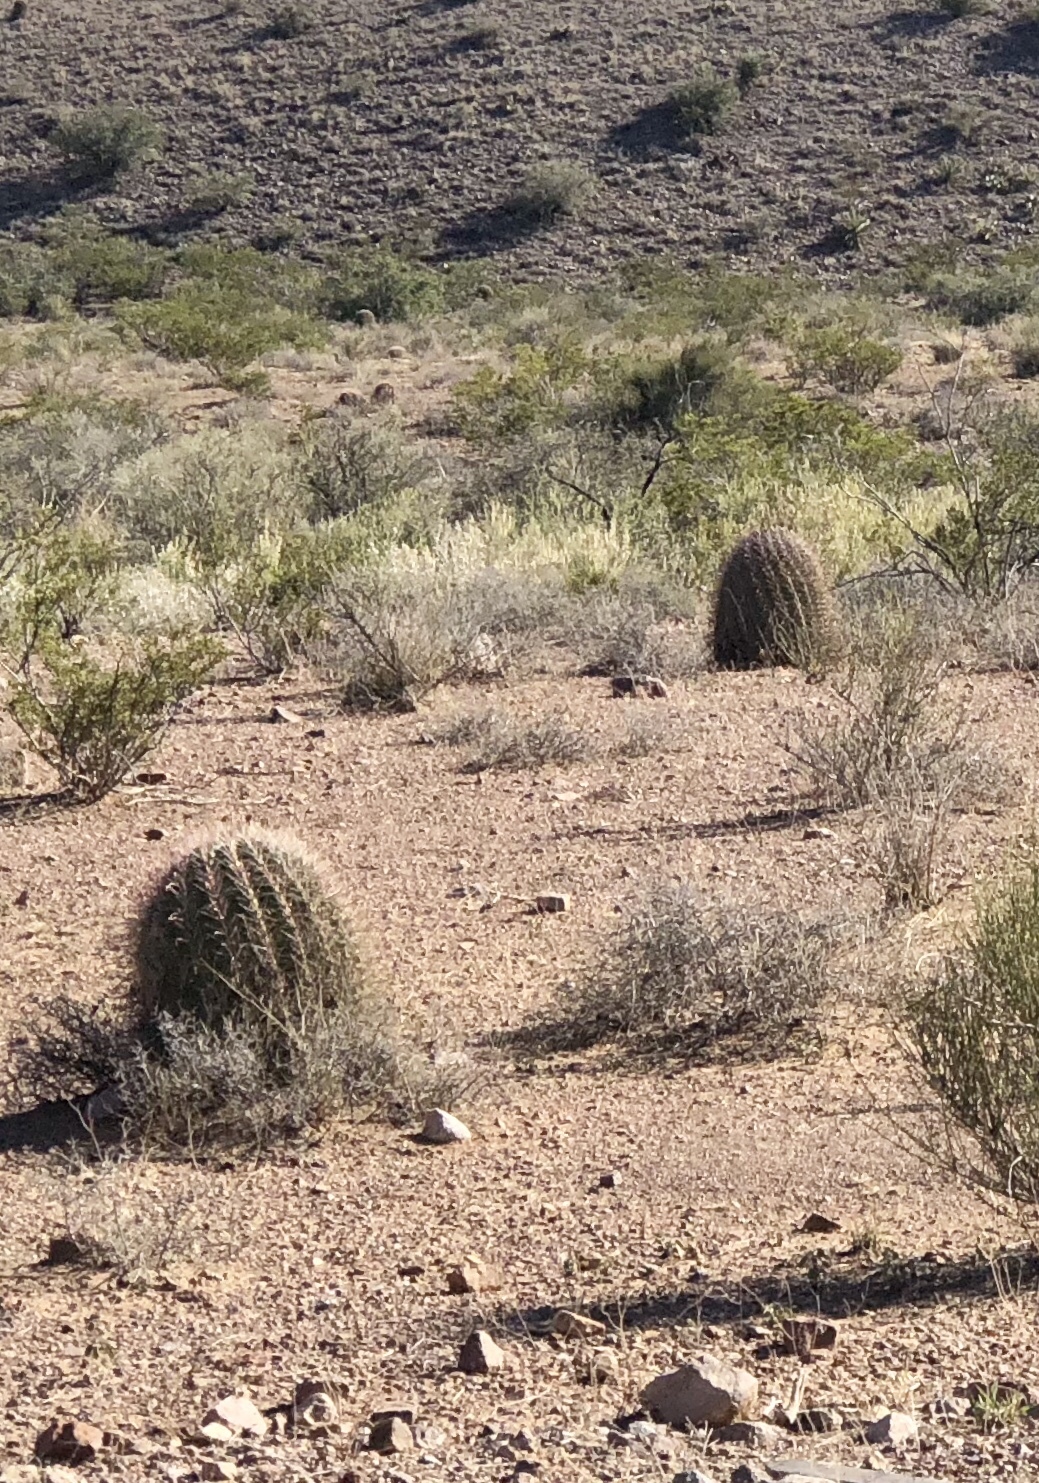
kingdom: Plantae
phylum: Tracheophyta
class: Magnoliopsida
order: Caryophyllales
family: Cactaceae
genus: Ferocactus
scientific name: Ferocactus wislizeni
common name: Candy barrel cactus
